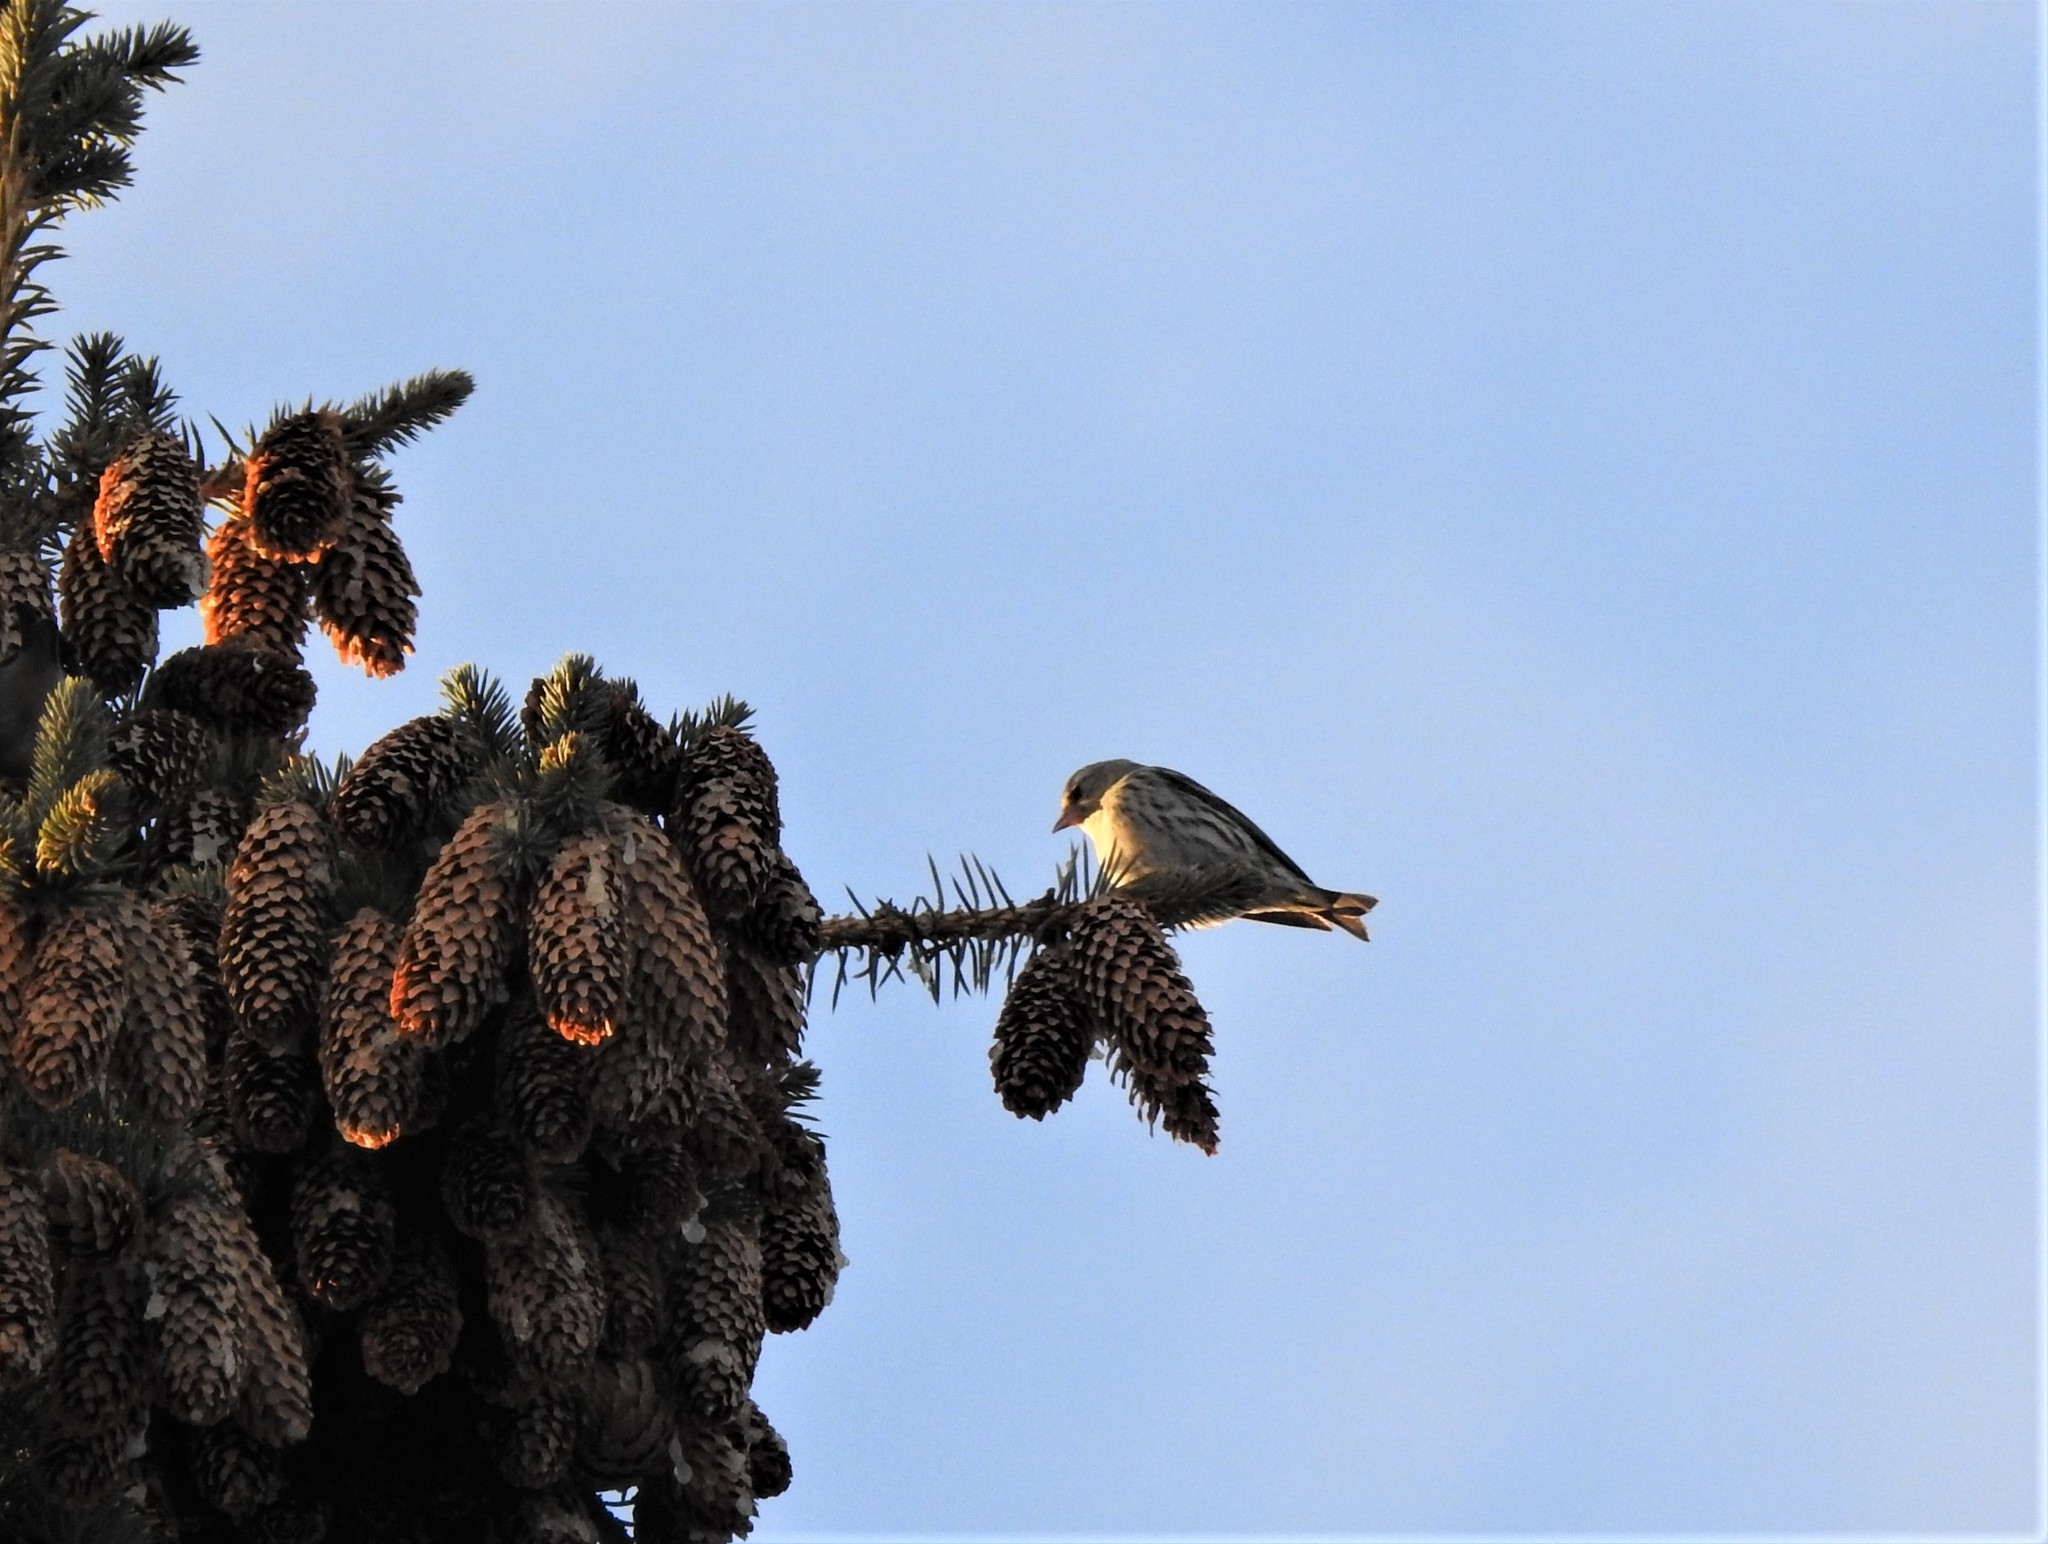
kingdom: Animalia
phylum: Chordata
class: Aves
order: Passeriformes
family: Fringillidae
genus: Spinus
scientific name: Spinus spinus
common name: Eurasian siskin
